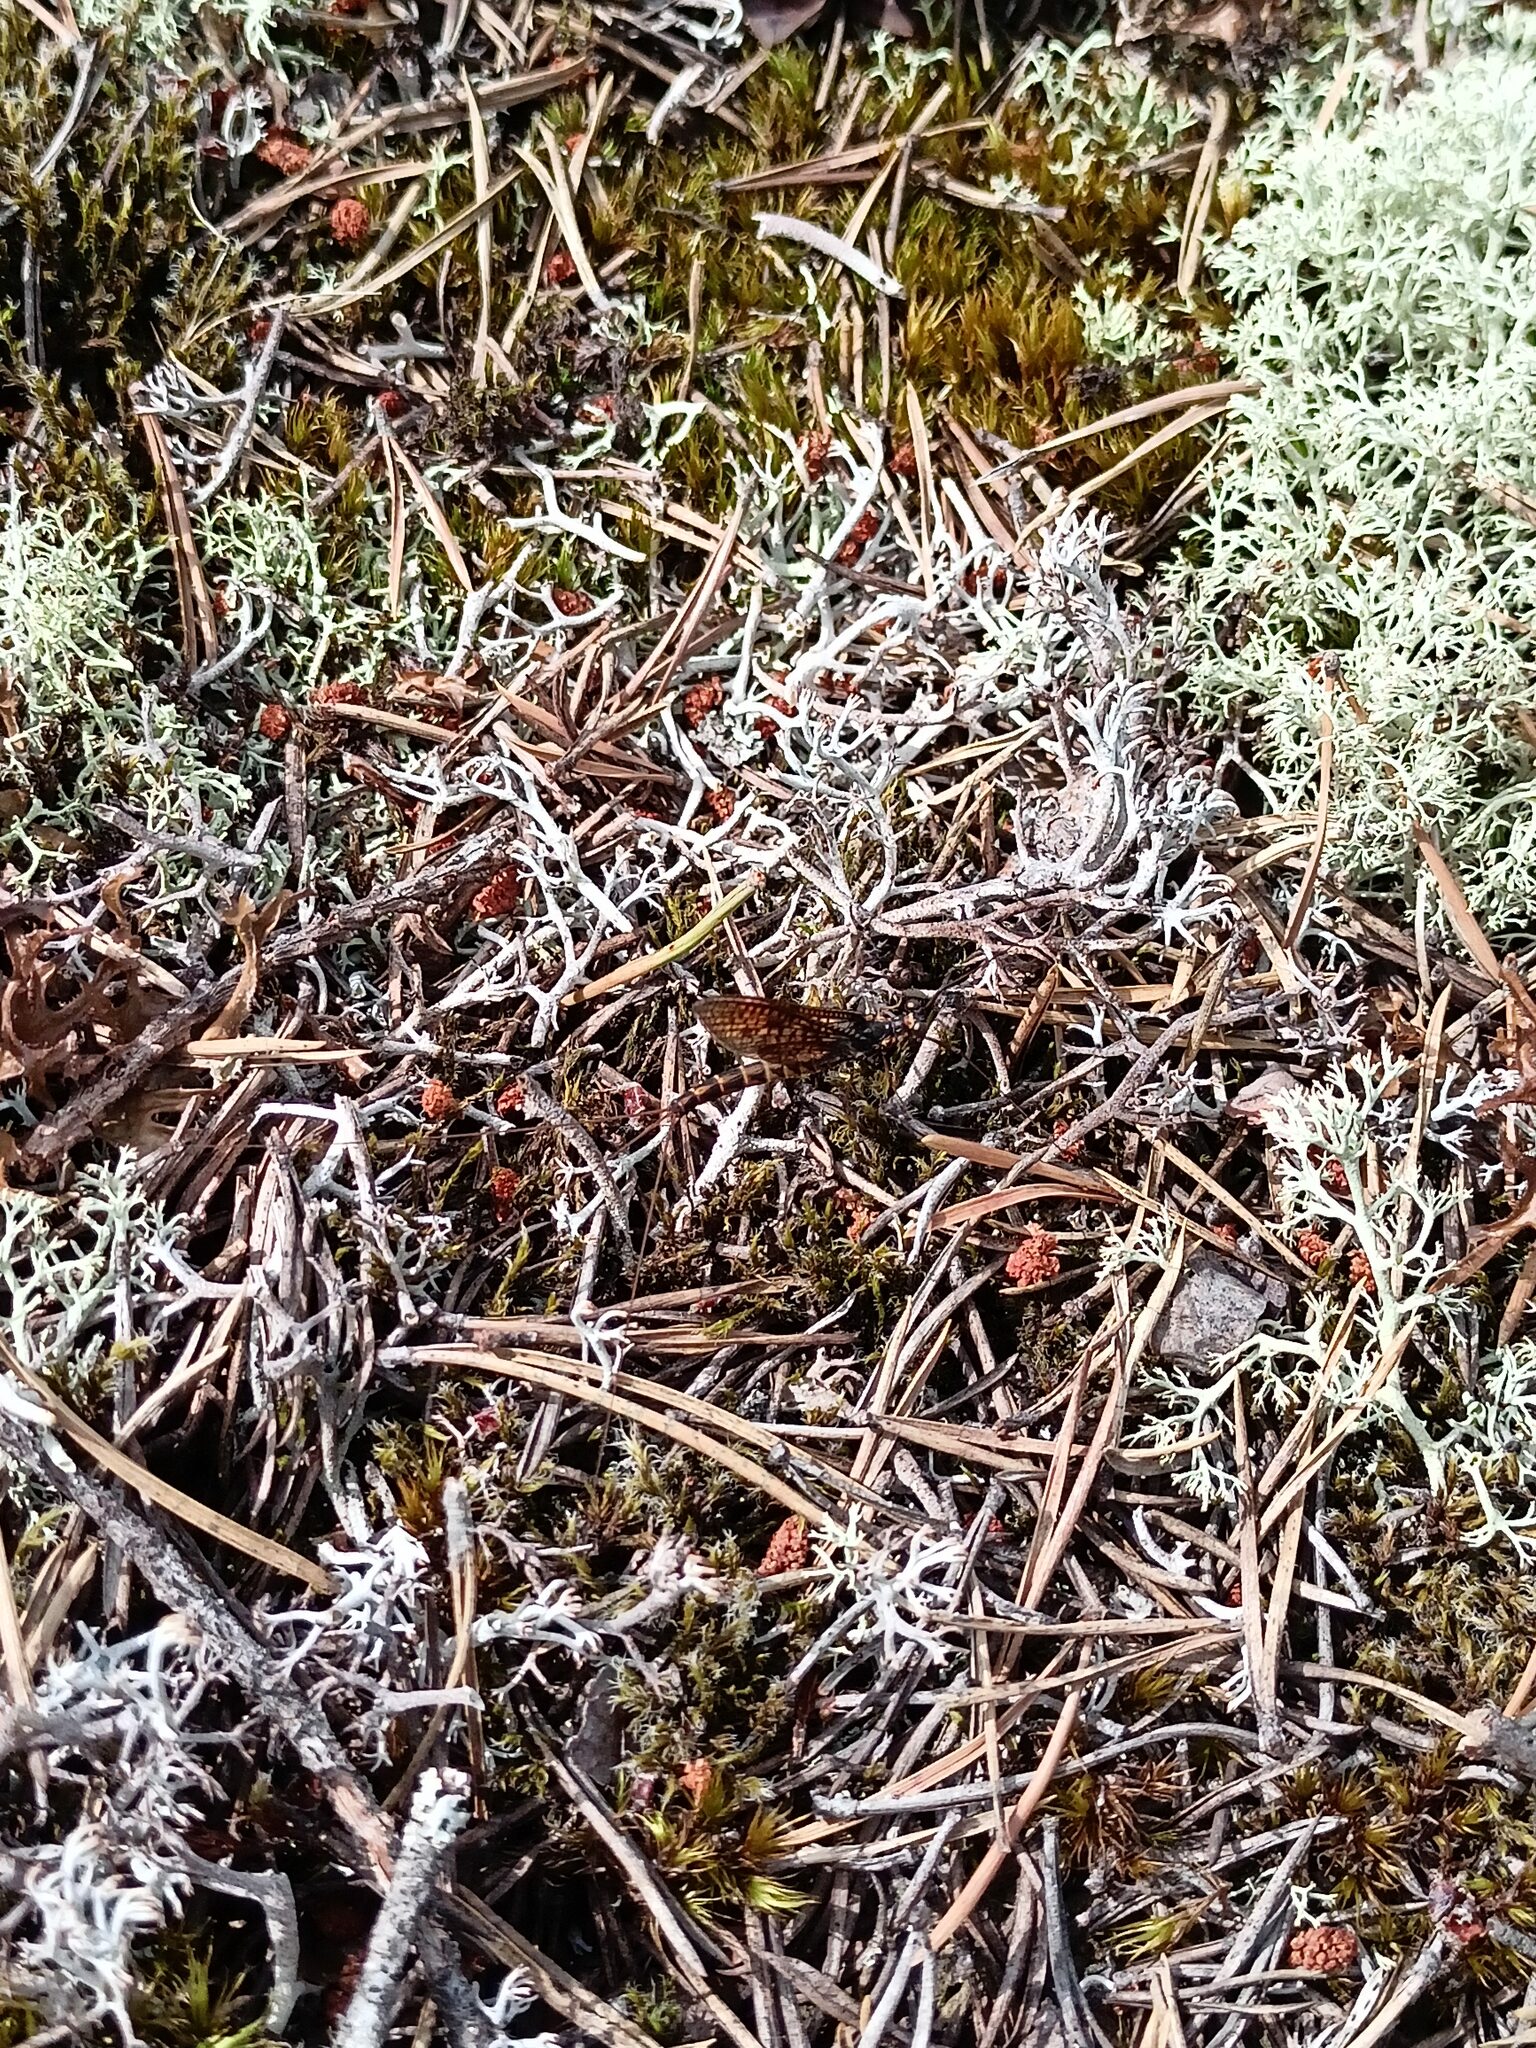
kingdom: Animalia
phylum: Arthropoda
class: Insecta
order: Ephemeroptera
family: Ephemeridae
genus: Ephemera
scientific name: Ephemera vulgata
